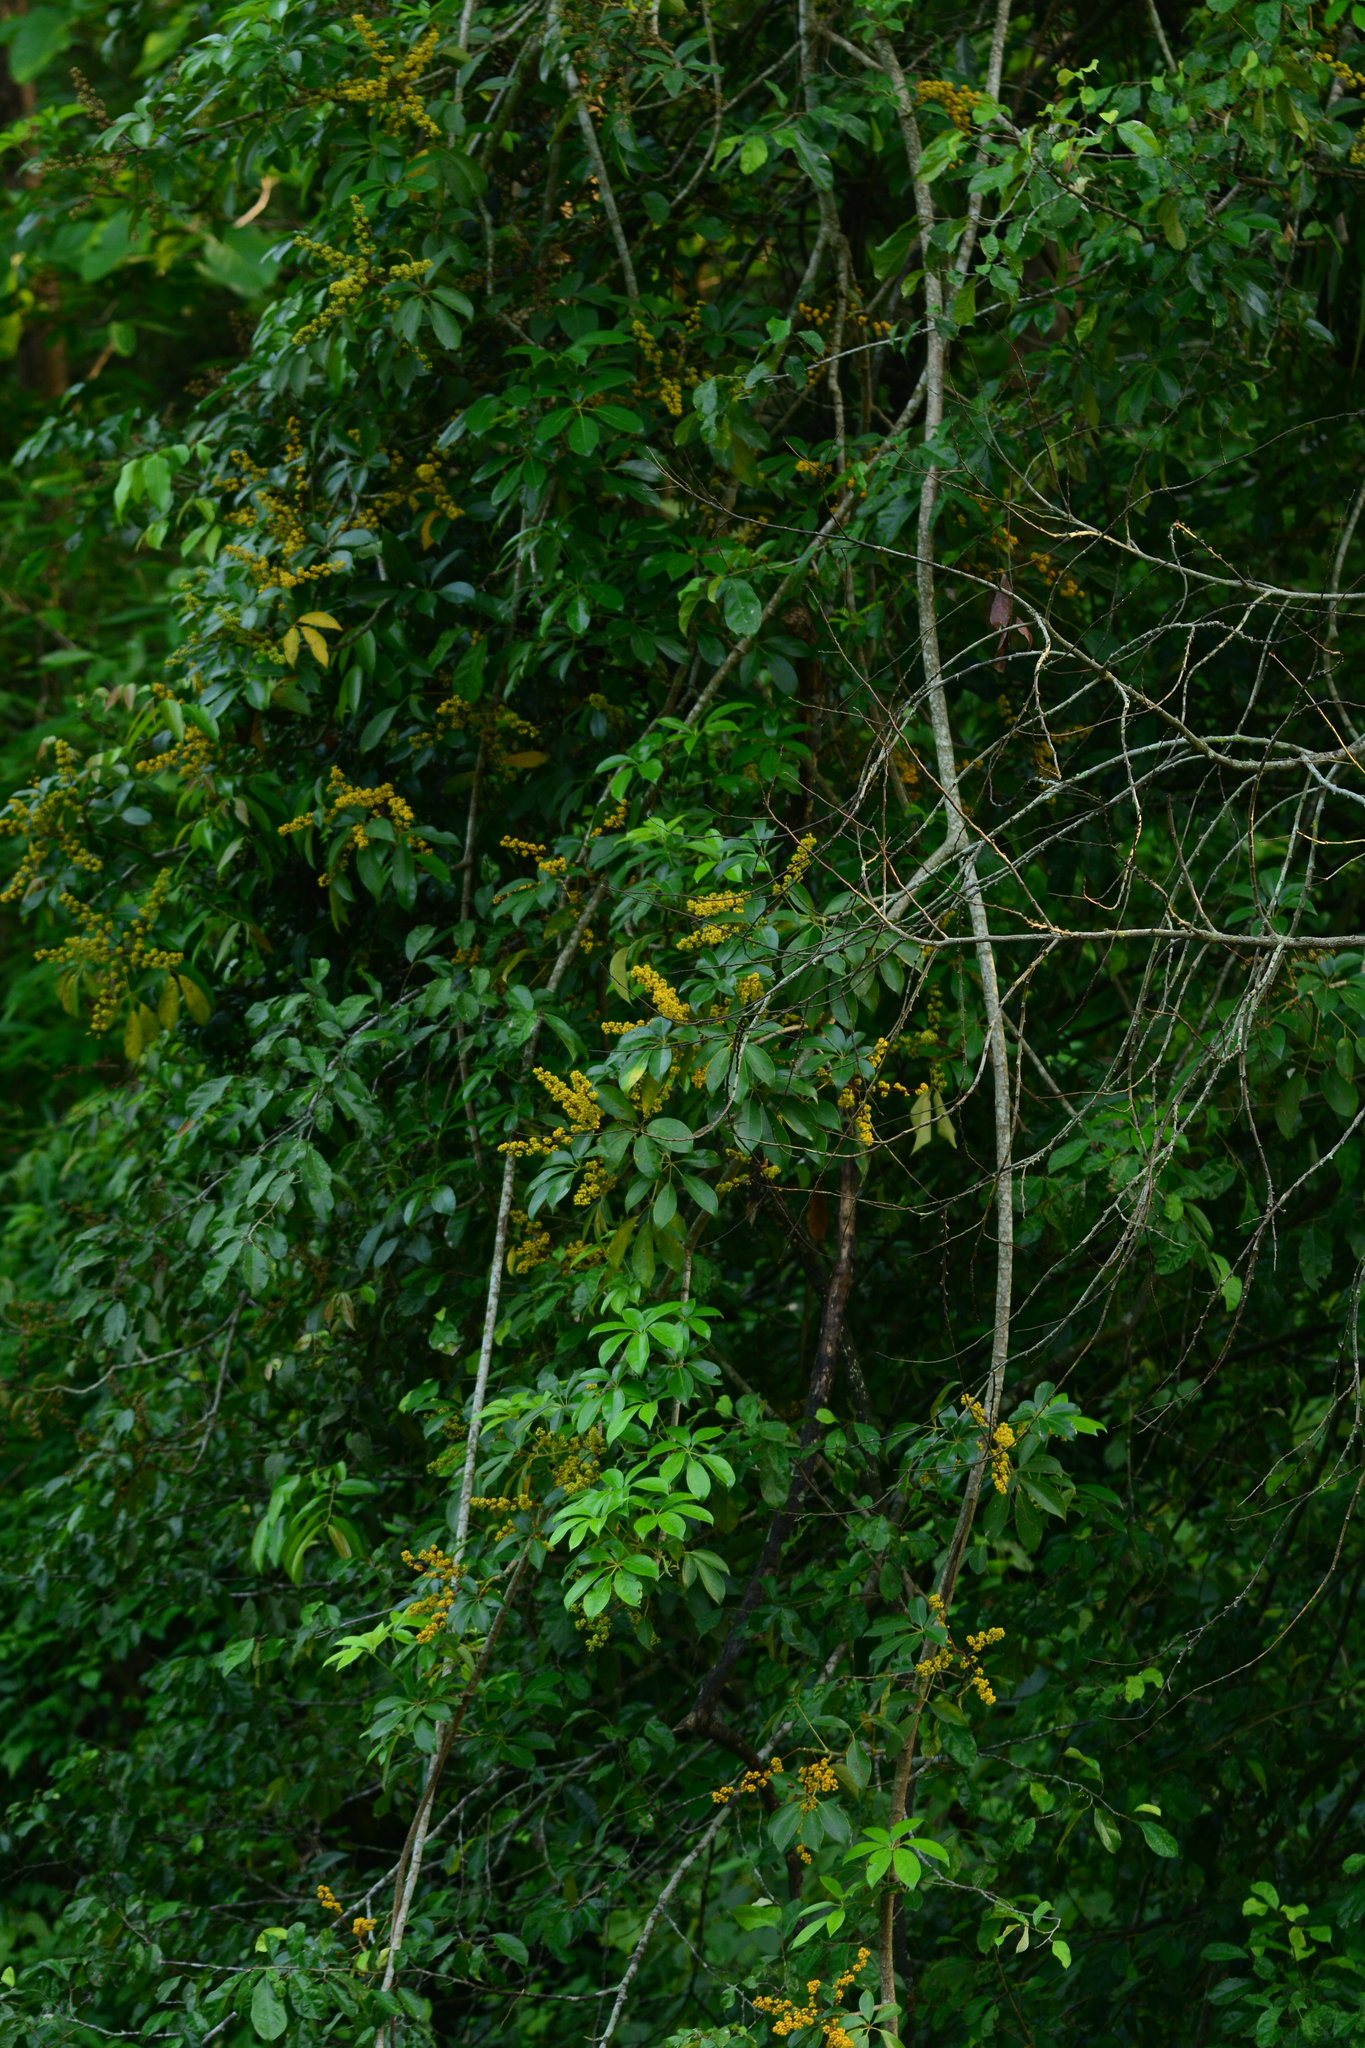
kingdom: Plantae
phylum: Tracheophyta
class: Magnoliopsida
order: Apiales
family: Araliaceae
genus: Heptapleurum
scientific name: Heptapleurum venulosum
